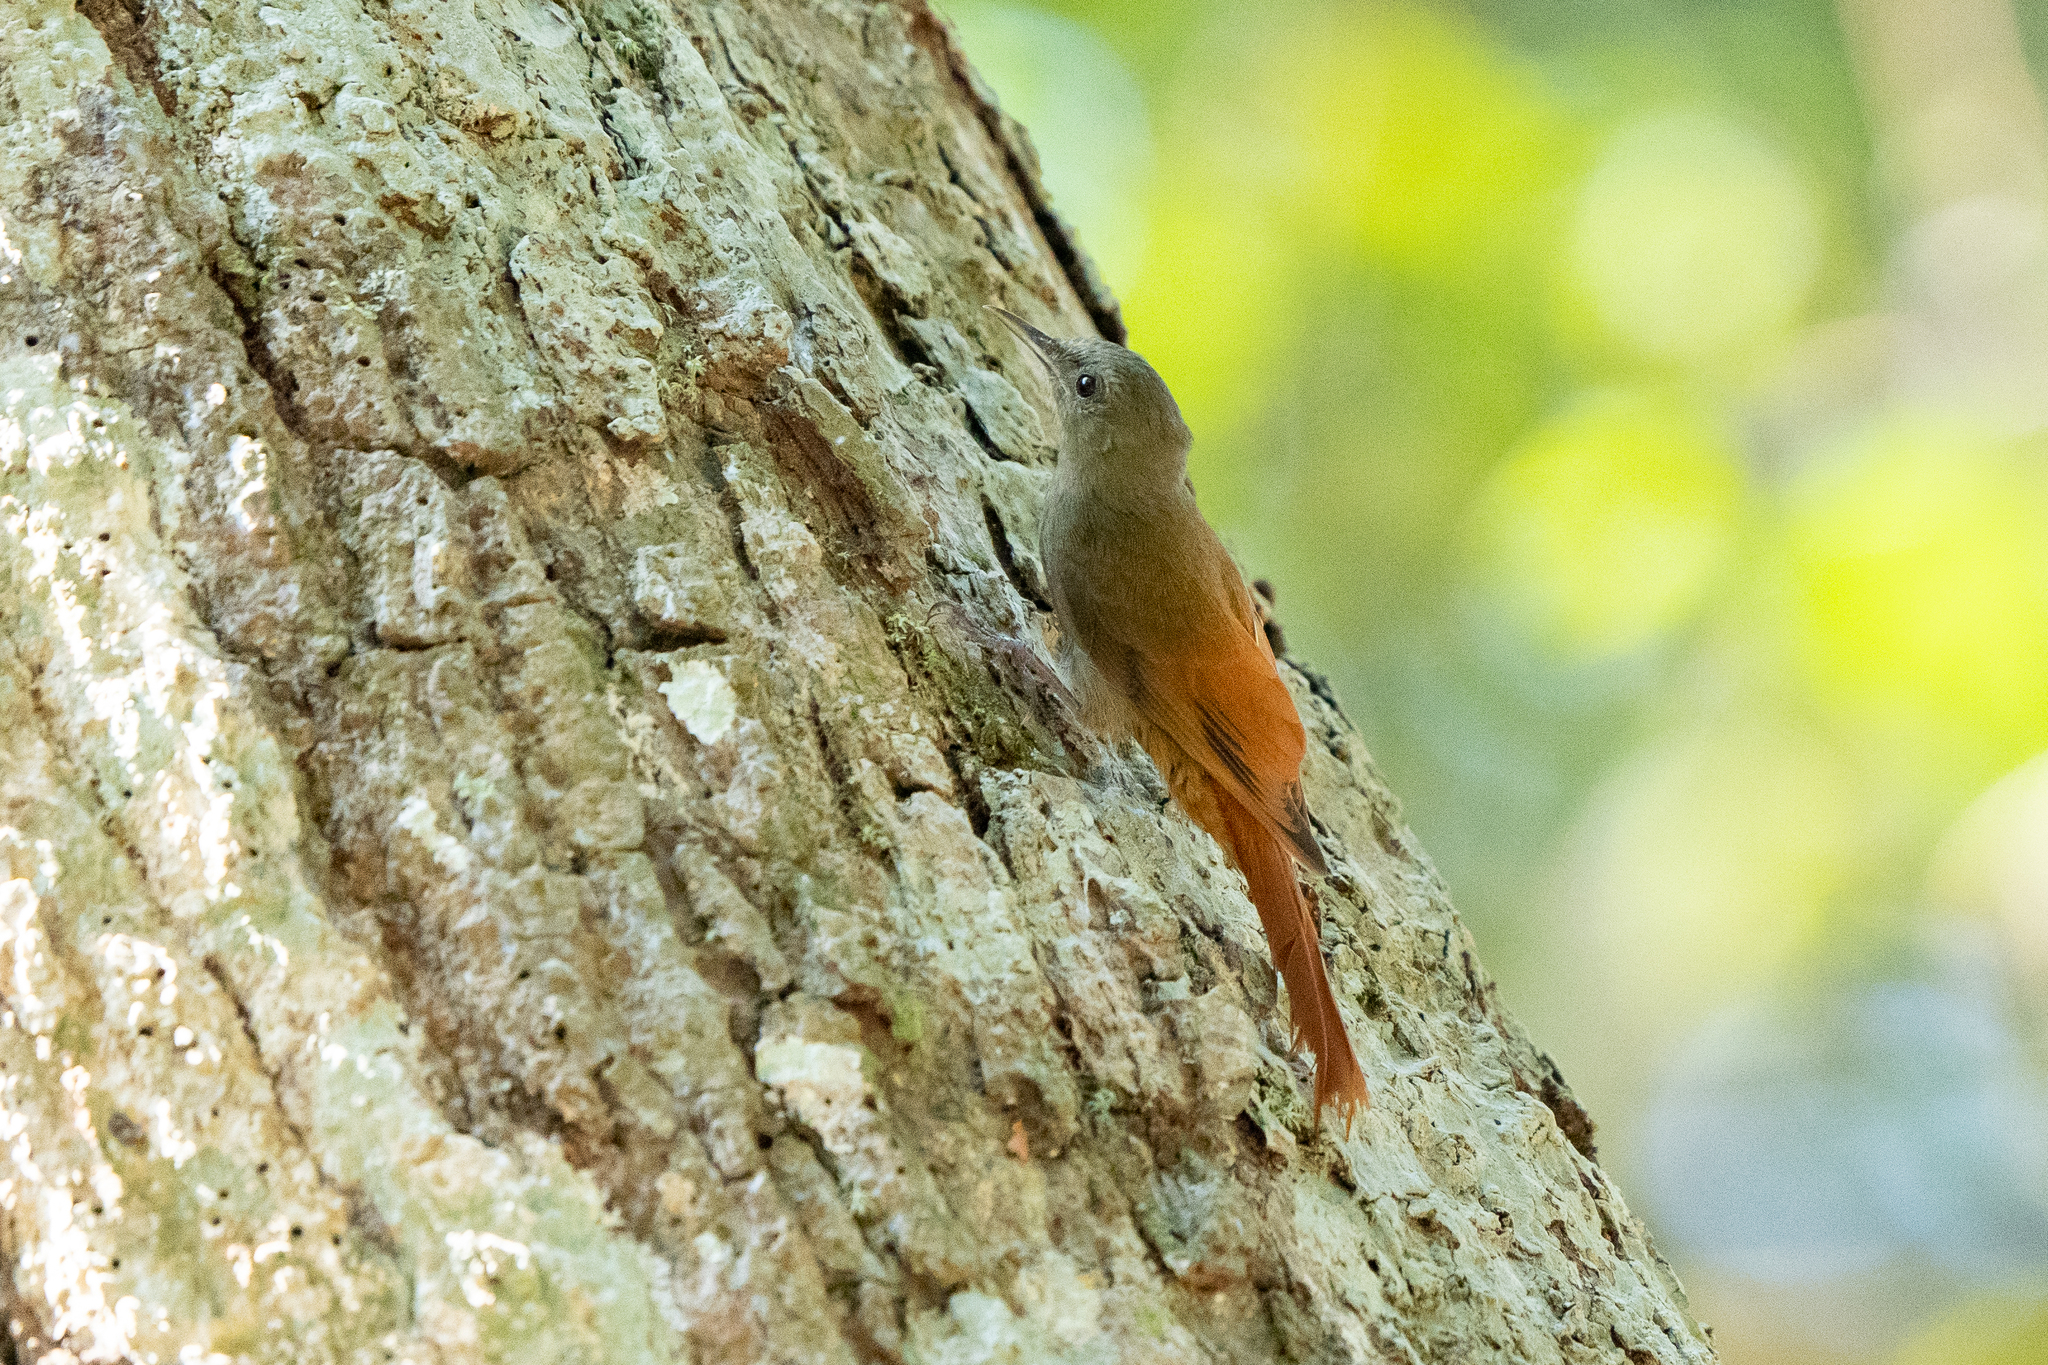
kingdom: Animalia
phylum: Chordata
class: Aves
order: Passeriformes
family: Furnariidae
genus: Sittasomus
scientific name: Sittasomus griseicapillus
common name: Olivaceous woodcreeper
